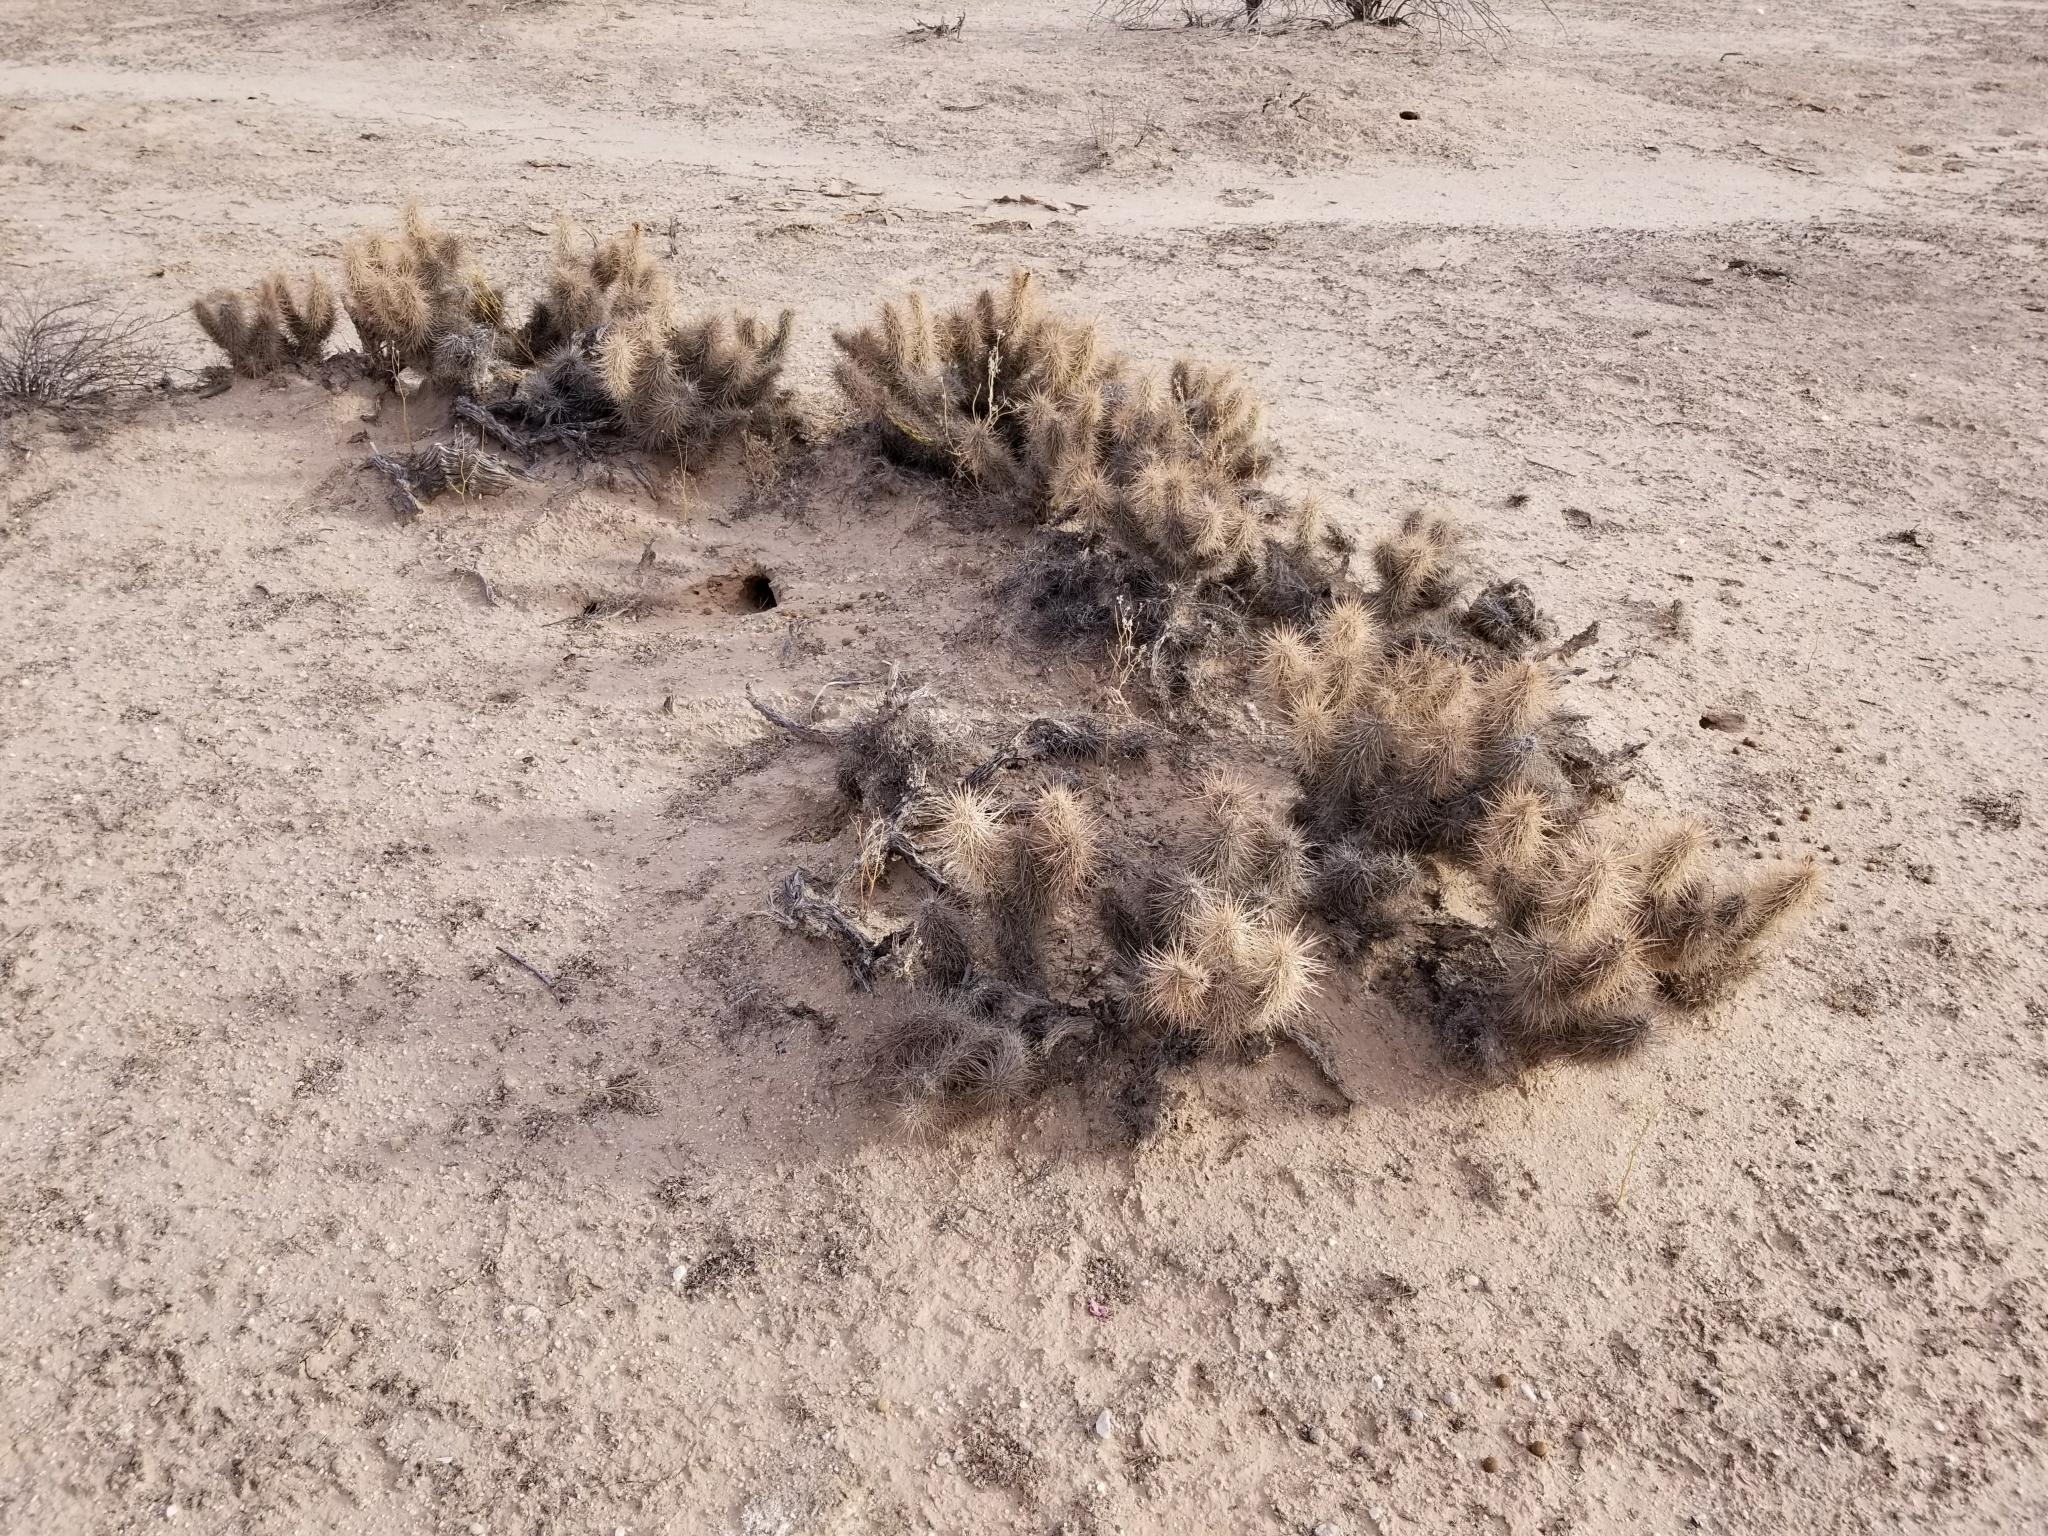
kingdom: Plantae
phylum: Tracheophyta
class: Magnoliopsida
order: Caryophyllales
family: Cactaceae
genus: Grusonia
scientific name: Grusonia kunzei
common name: Wright's club cholla
